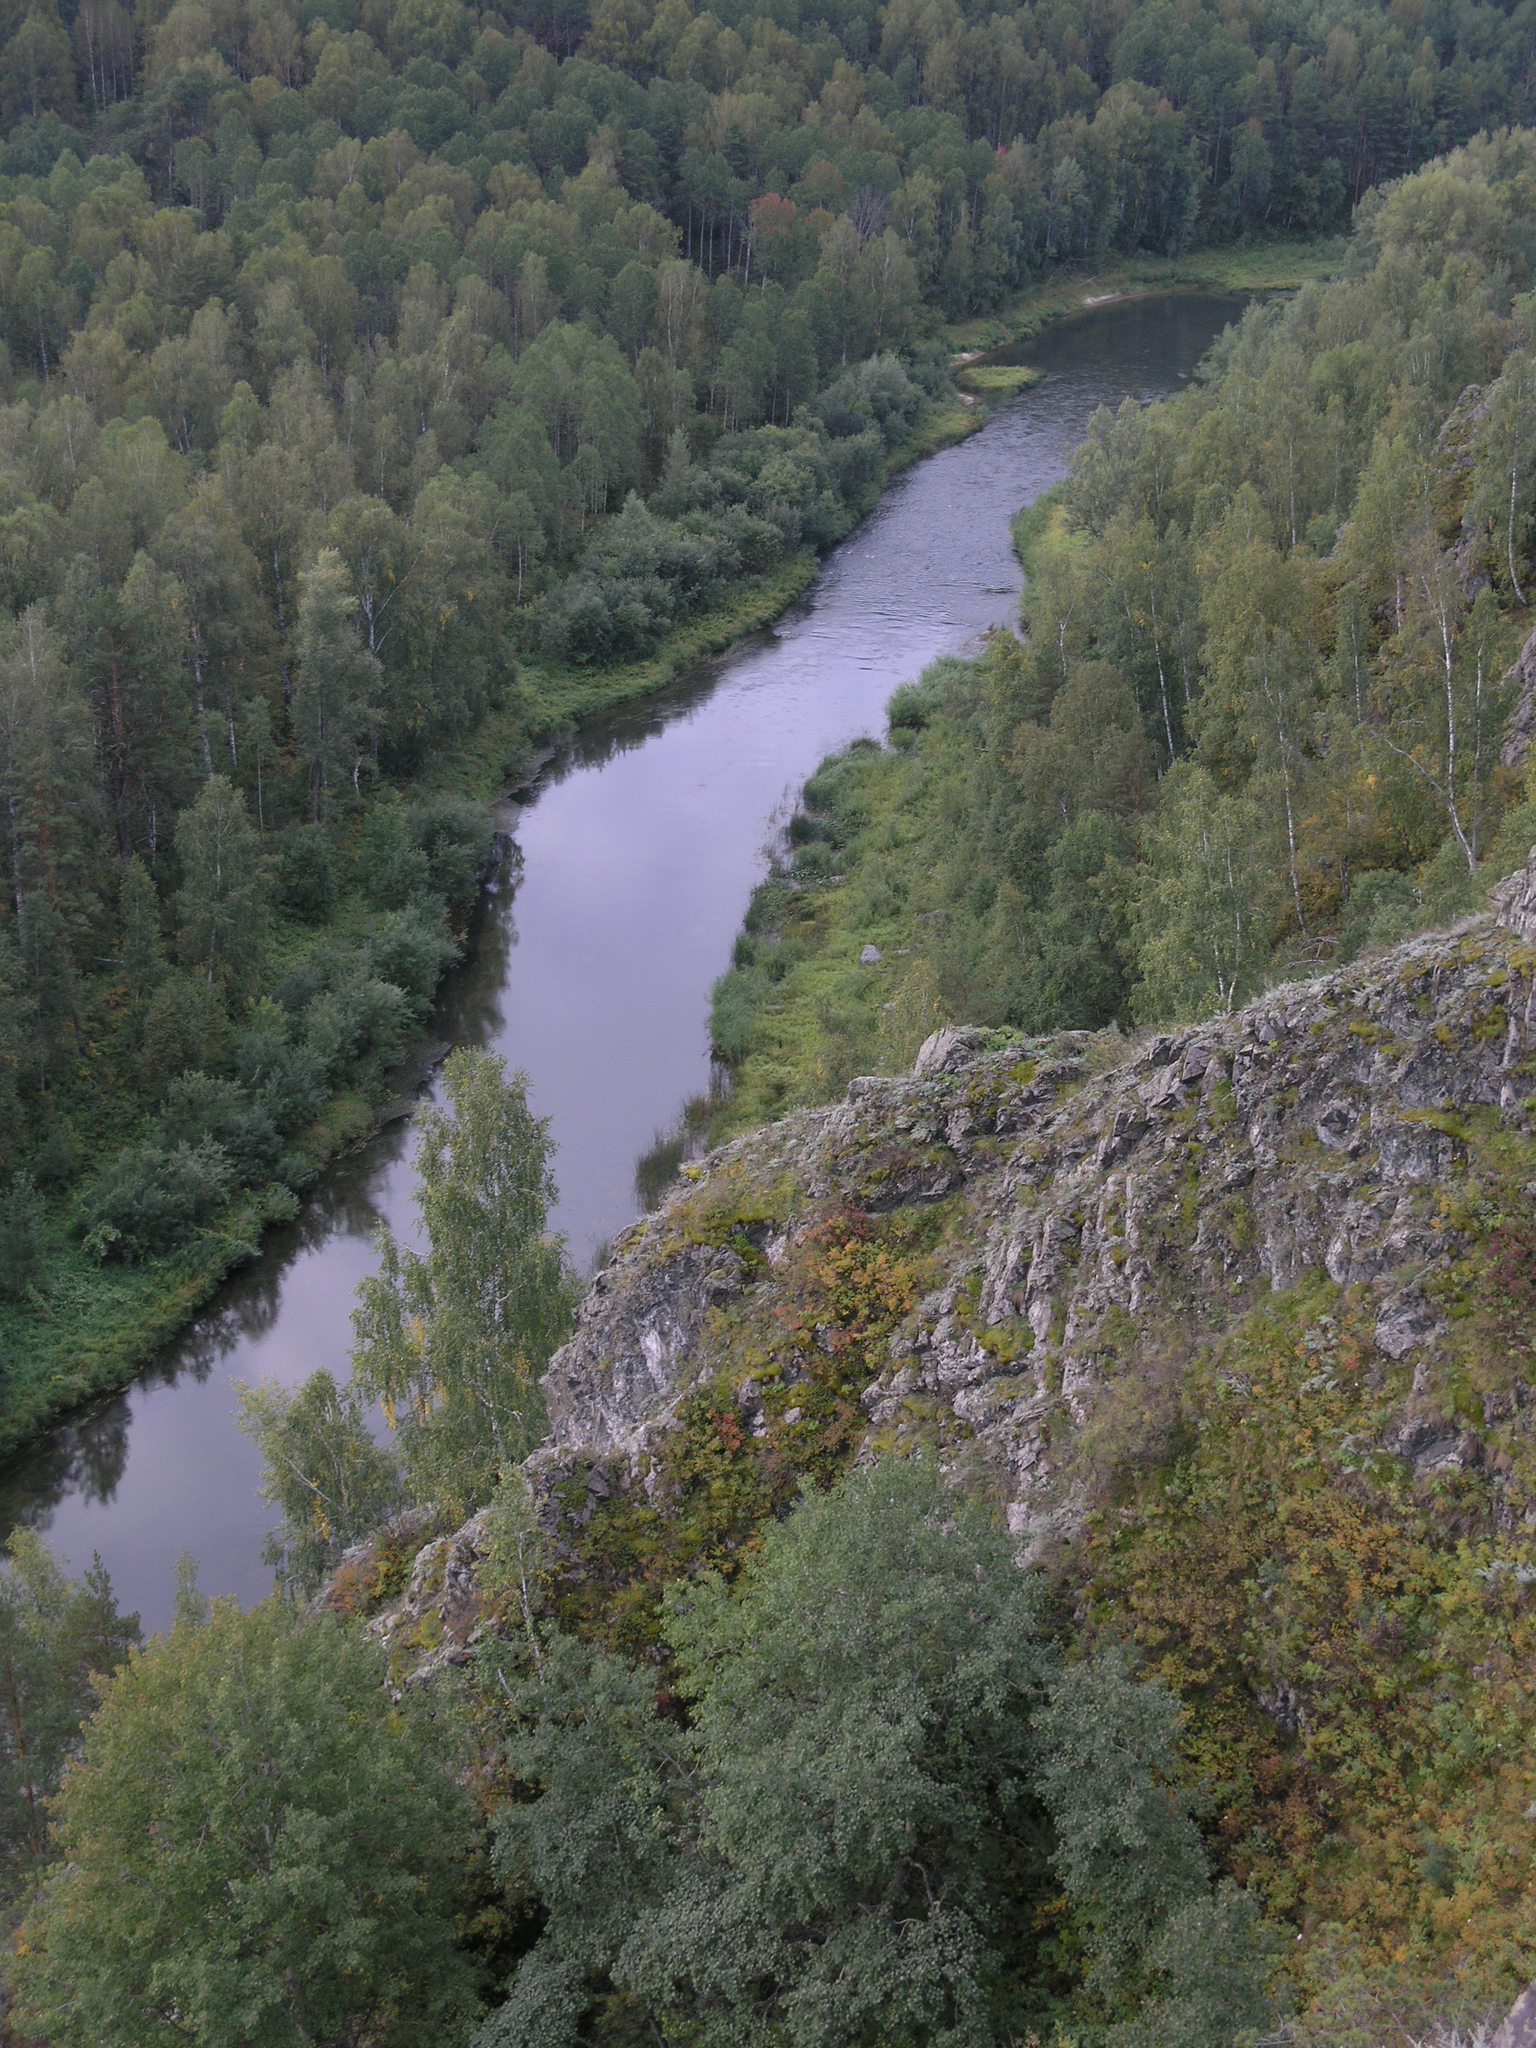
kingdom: Plantae
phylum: Tracheophyta
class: Magnoliopsida
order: Fagales
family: Betulaceae
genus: Betula
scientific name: Betula pendula
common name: Silver birch
